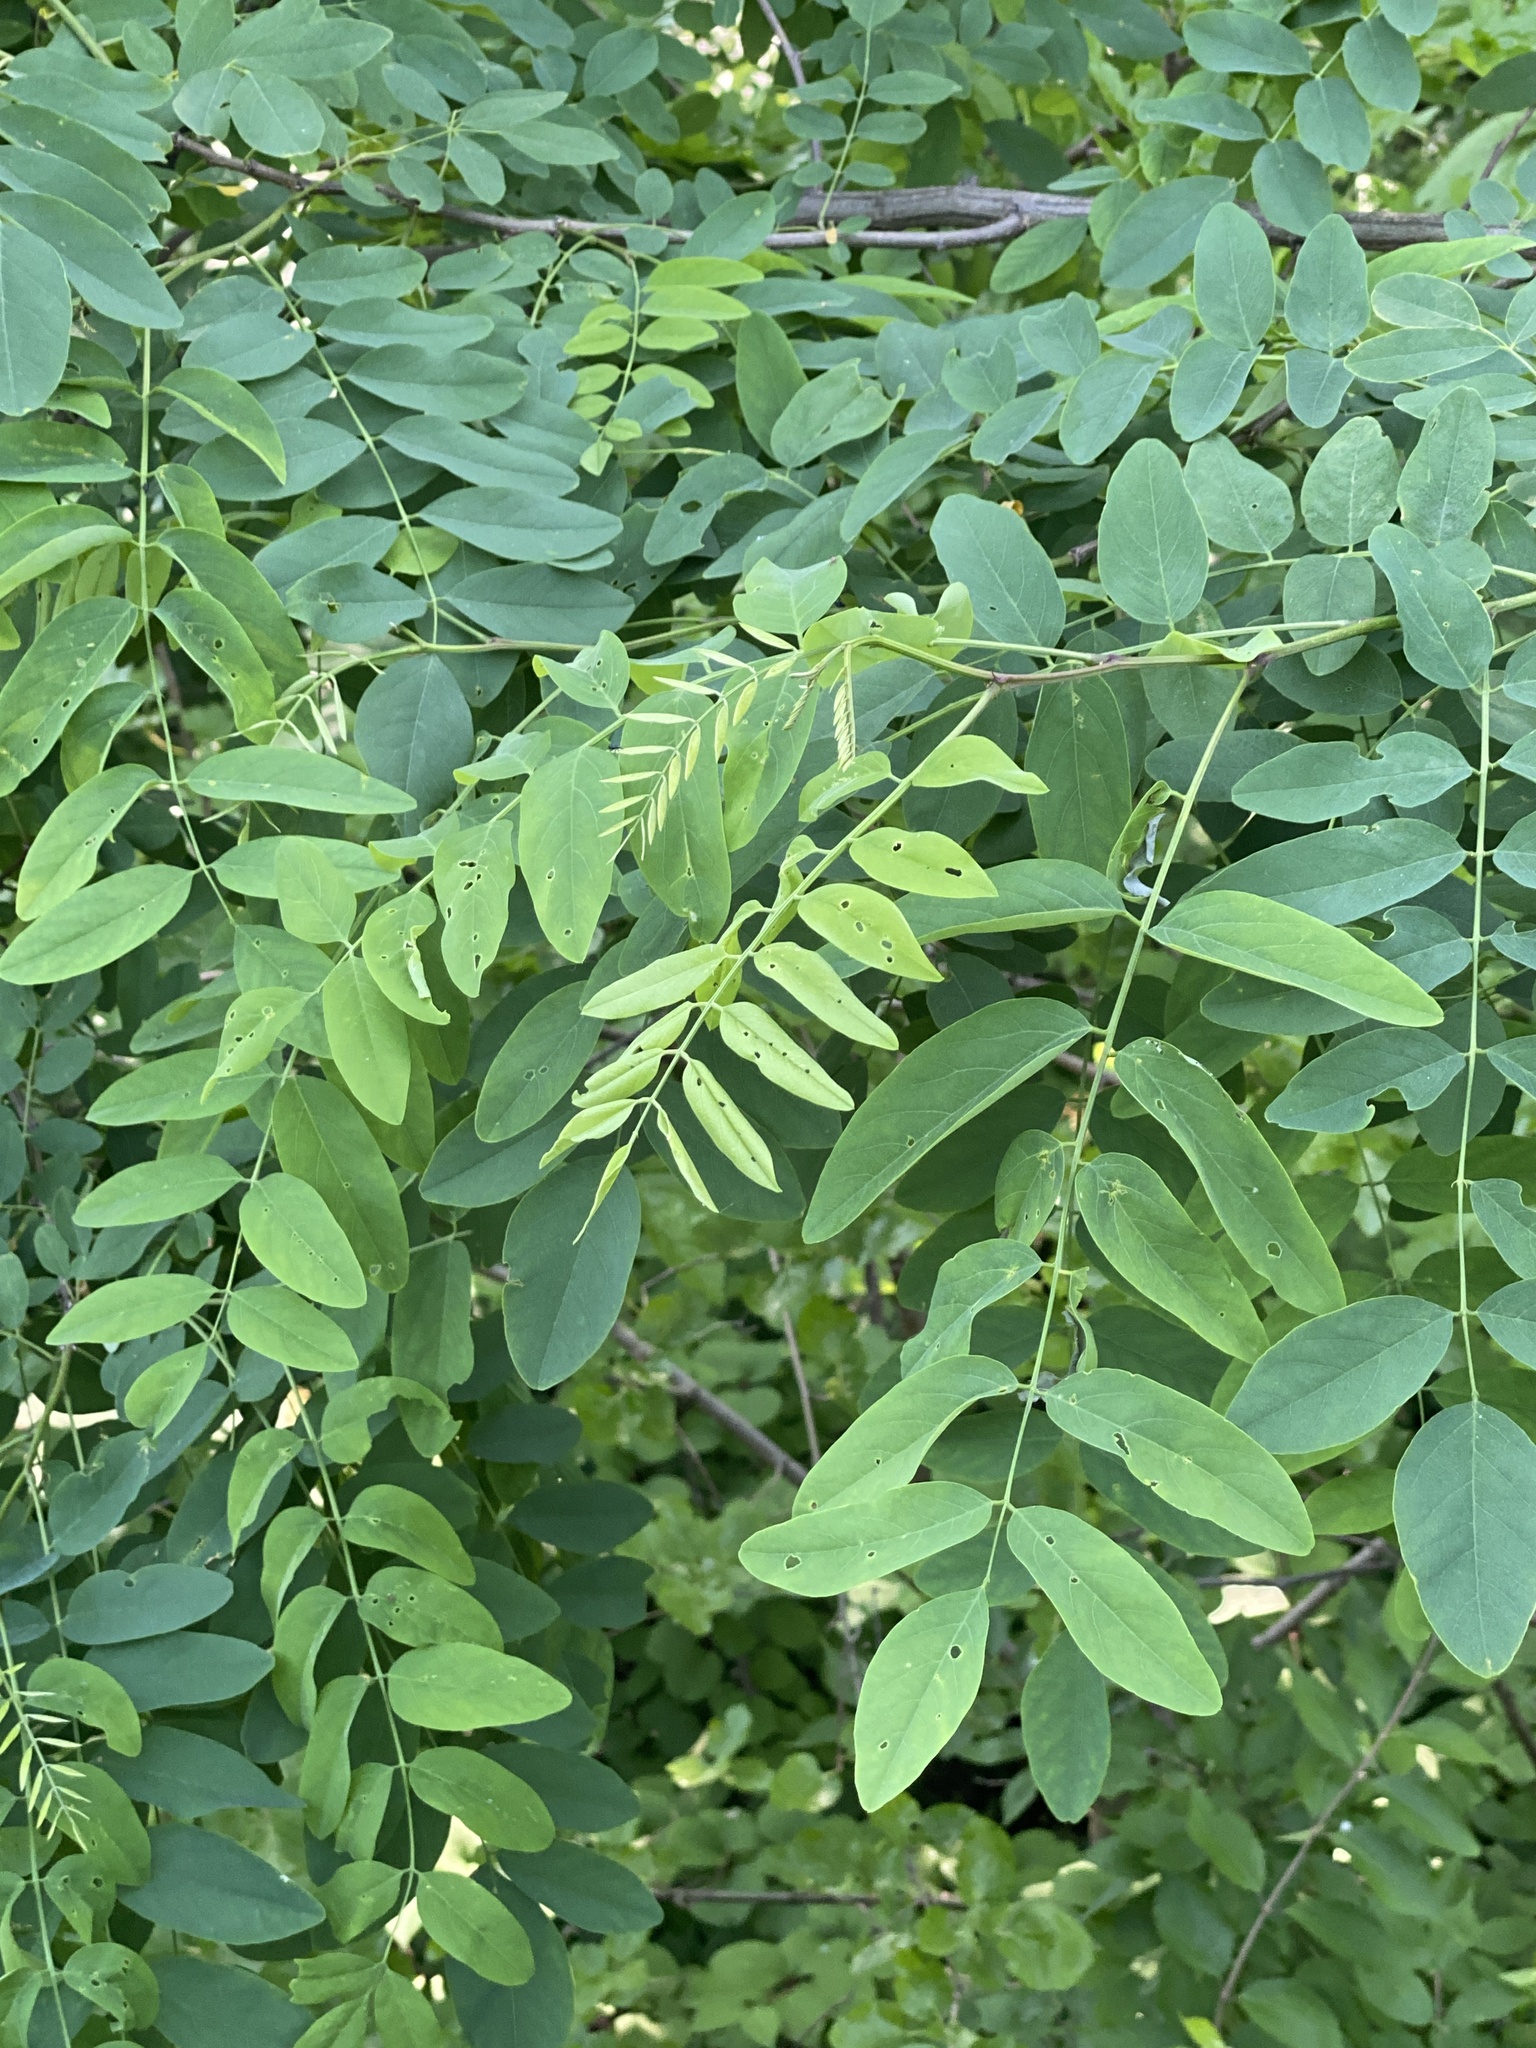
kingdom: Plantae
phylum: Tracheophyta
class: Magnoliopsida
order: Fabales
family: Fabaceae
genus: Robinia
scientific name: Robinia pseudoacacia
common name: Black locust
